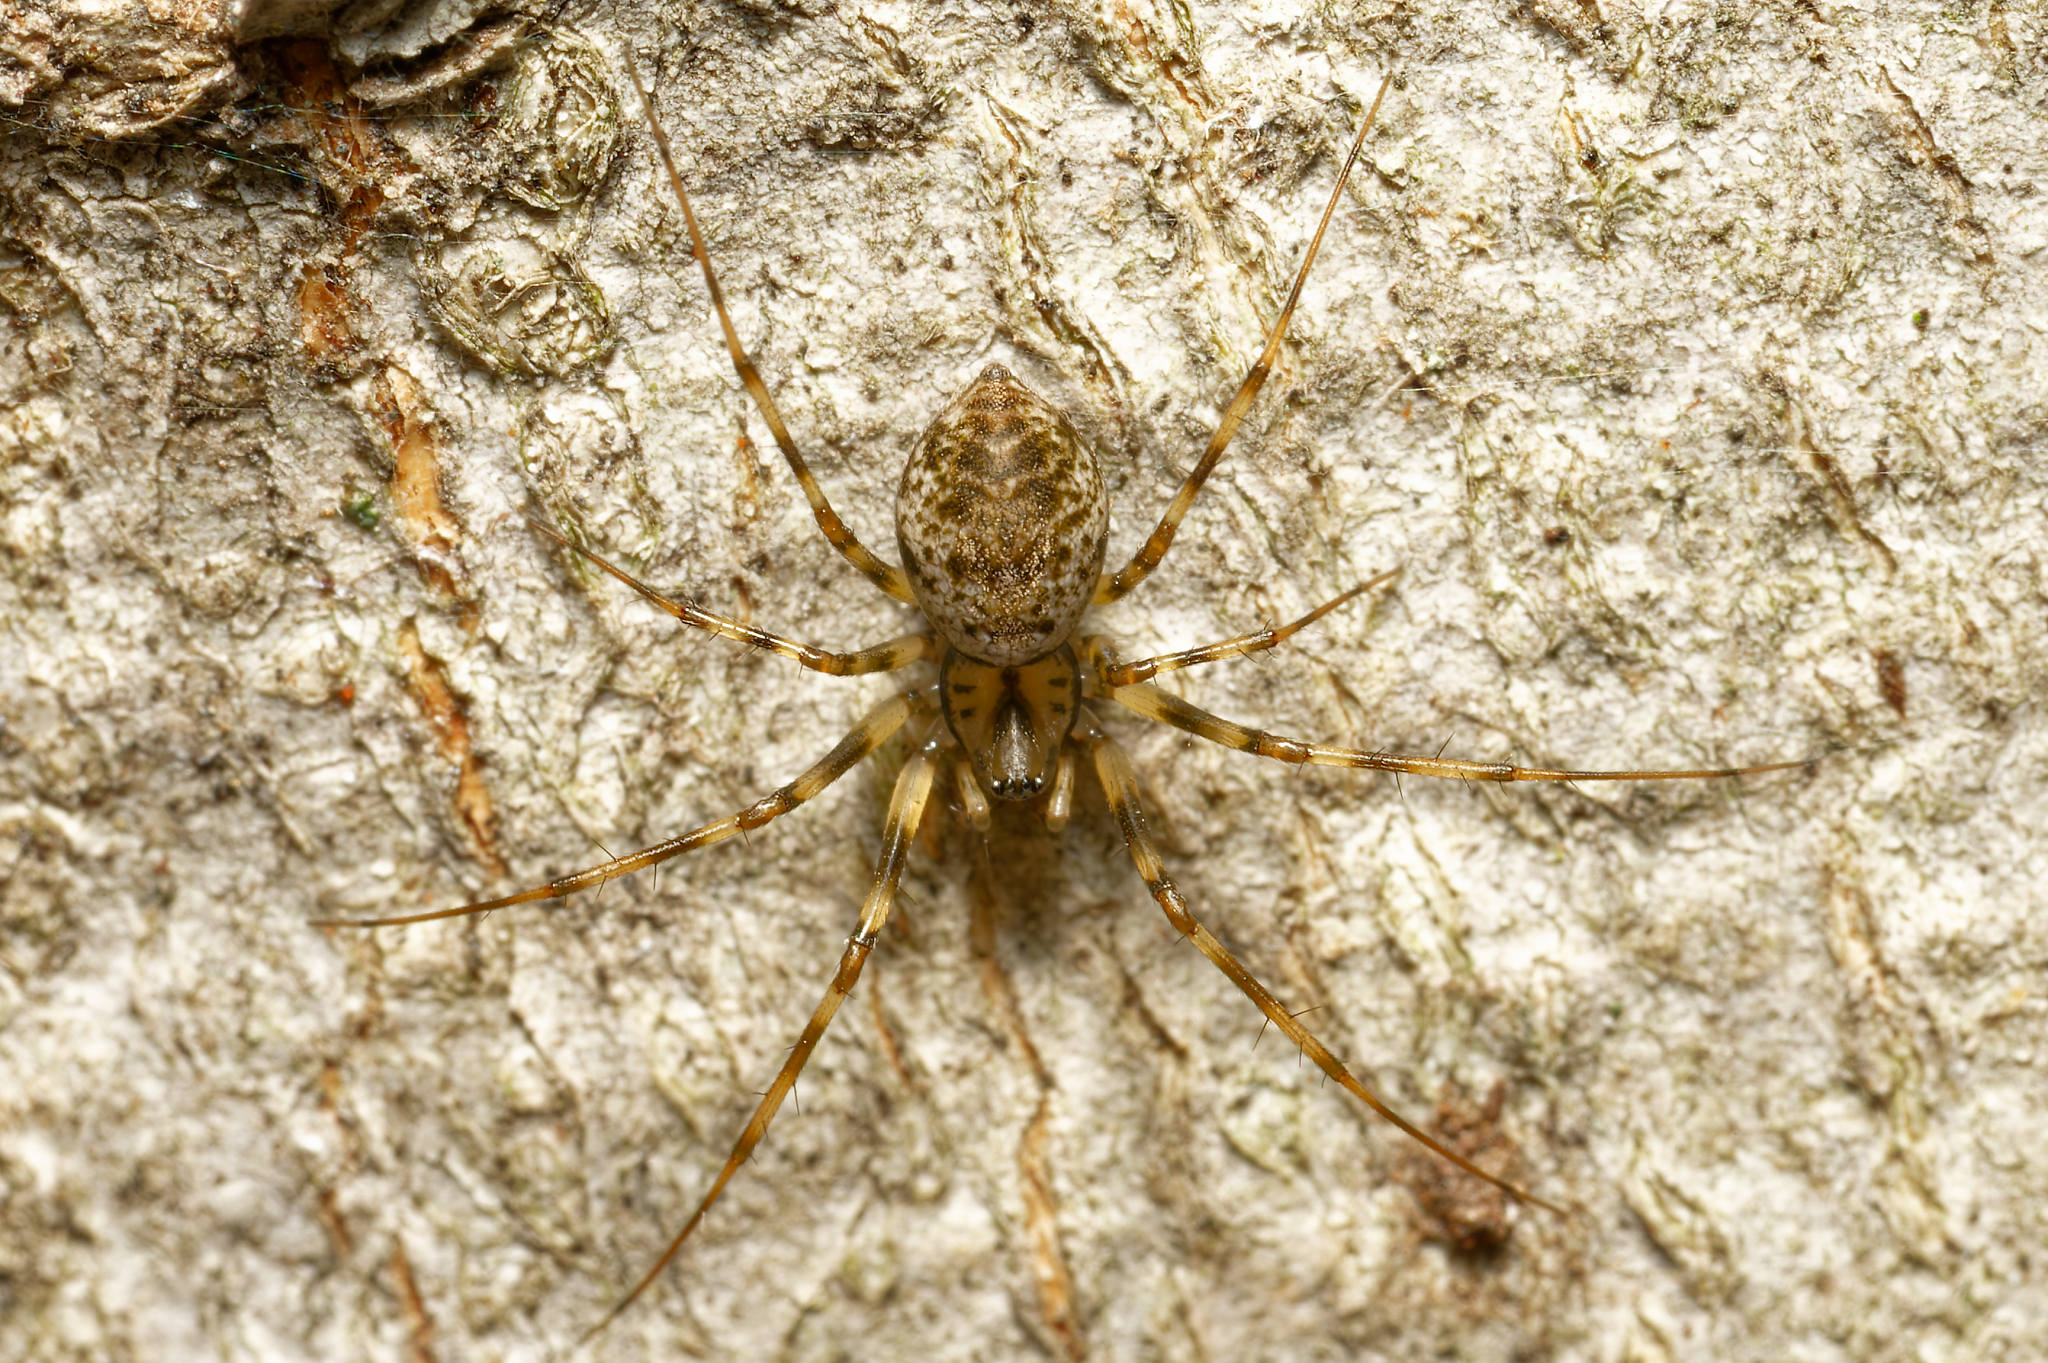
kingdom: Animalia
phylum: Arthropoda
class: Arachnida
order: Araneae
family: Linyphiidae
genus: Drapetisca
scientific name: Drapetisca alteranda
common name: Northern long-toothed sheetweaver
